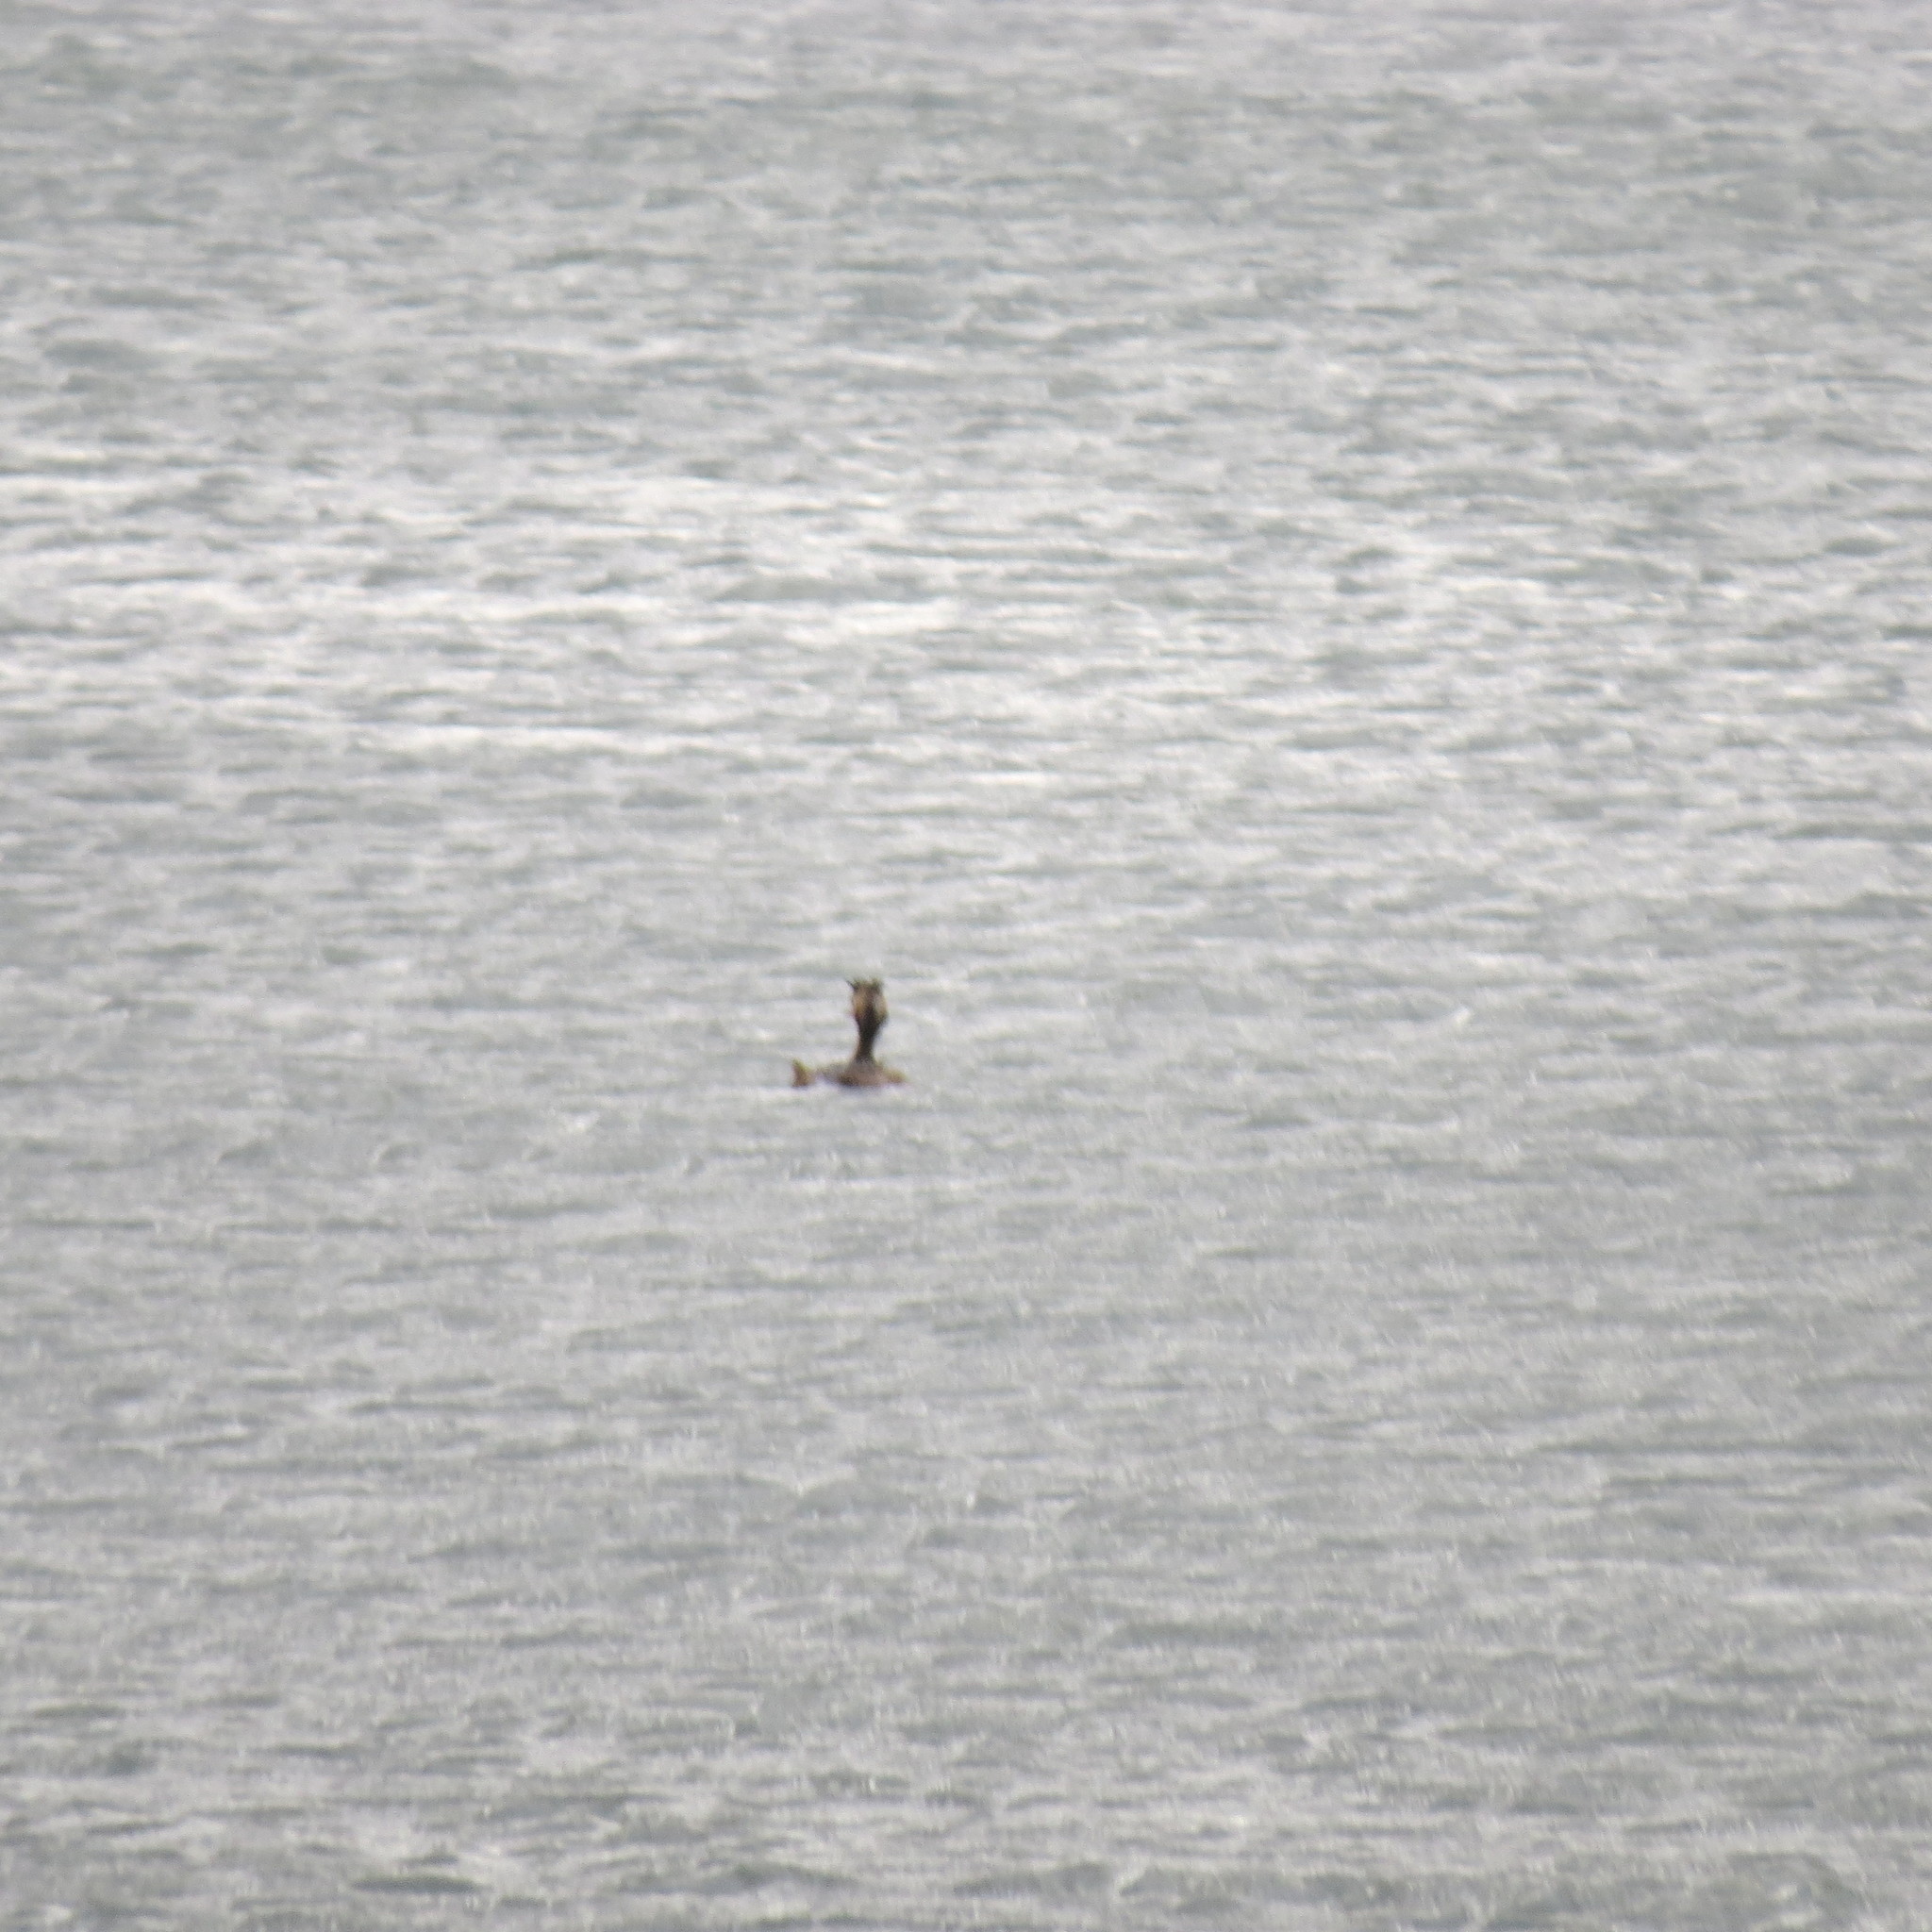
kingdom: Animalia
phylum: Chordata
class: Aves
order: Podicipediformes
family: Podicipedidae
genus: Podiceps
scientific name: Podiceps cristatus
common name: Great crested grebe
